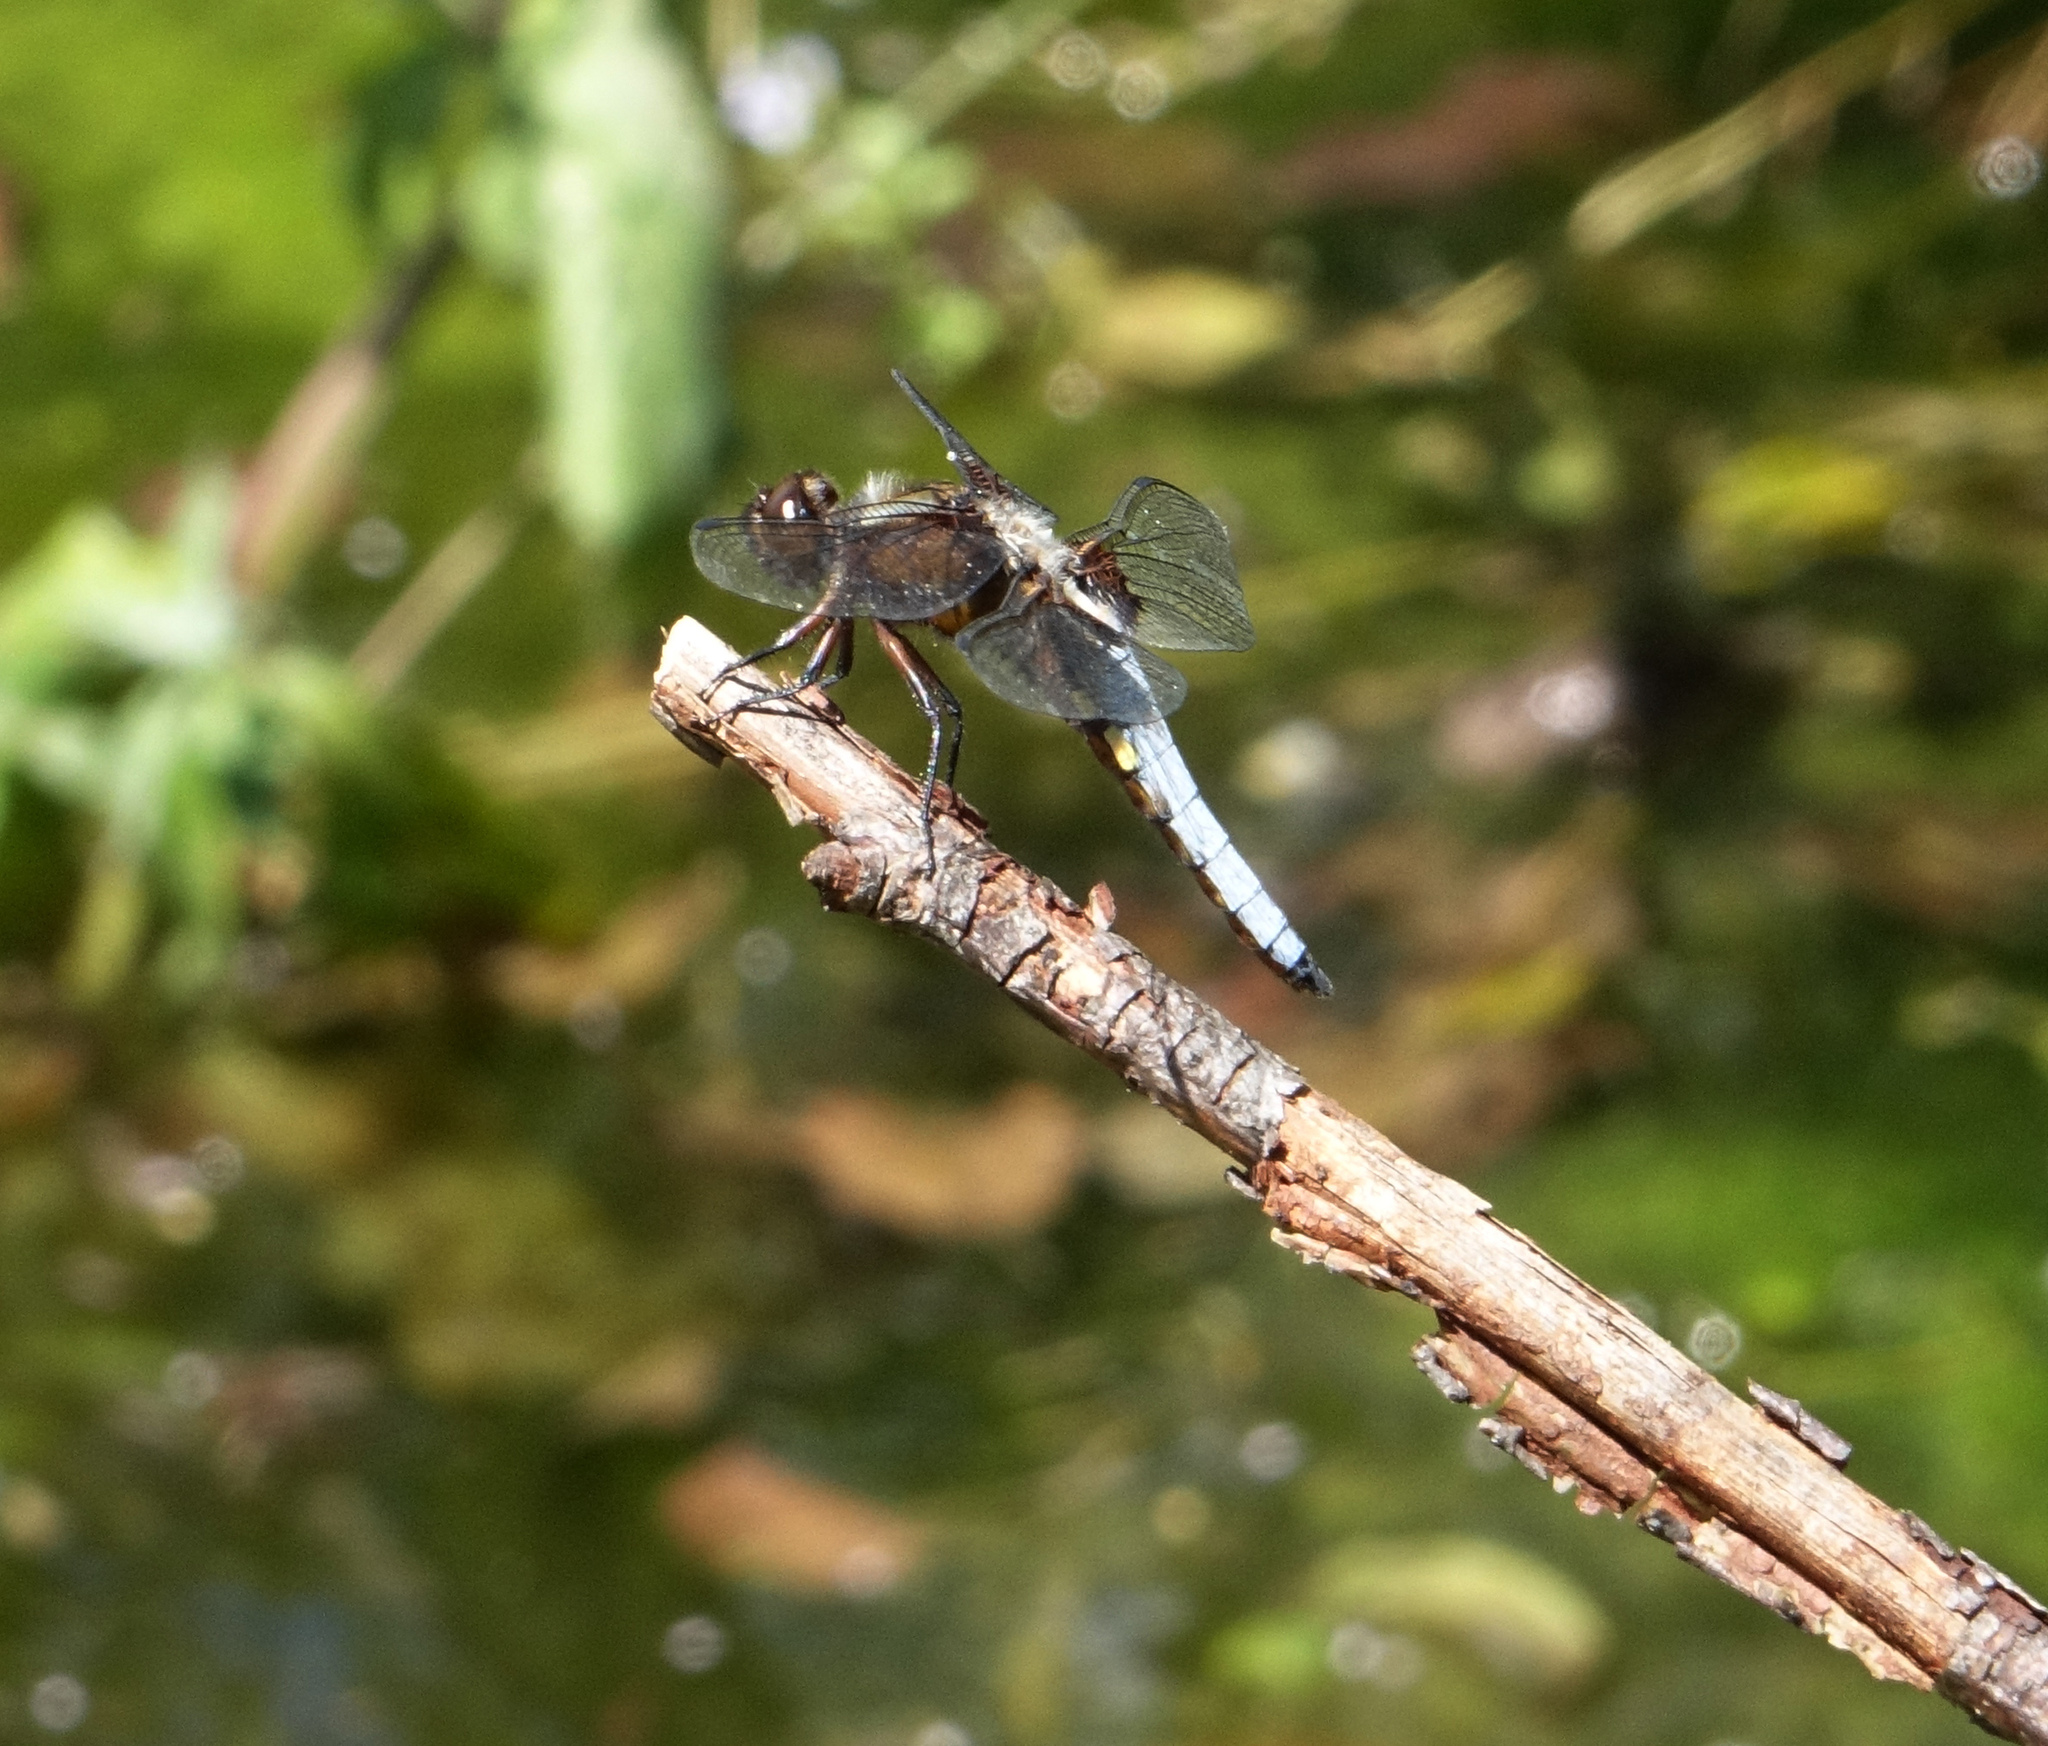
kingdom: Animalia
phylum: Arthropoda
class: Insecta
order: Odonata
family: Libellulidae
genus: Libellula
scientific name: Libellula depressa
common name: Broad-bodied chaser
